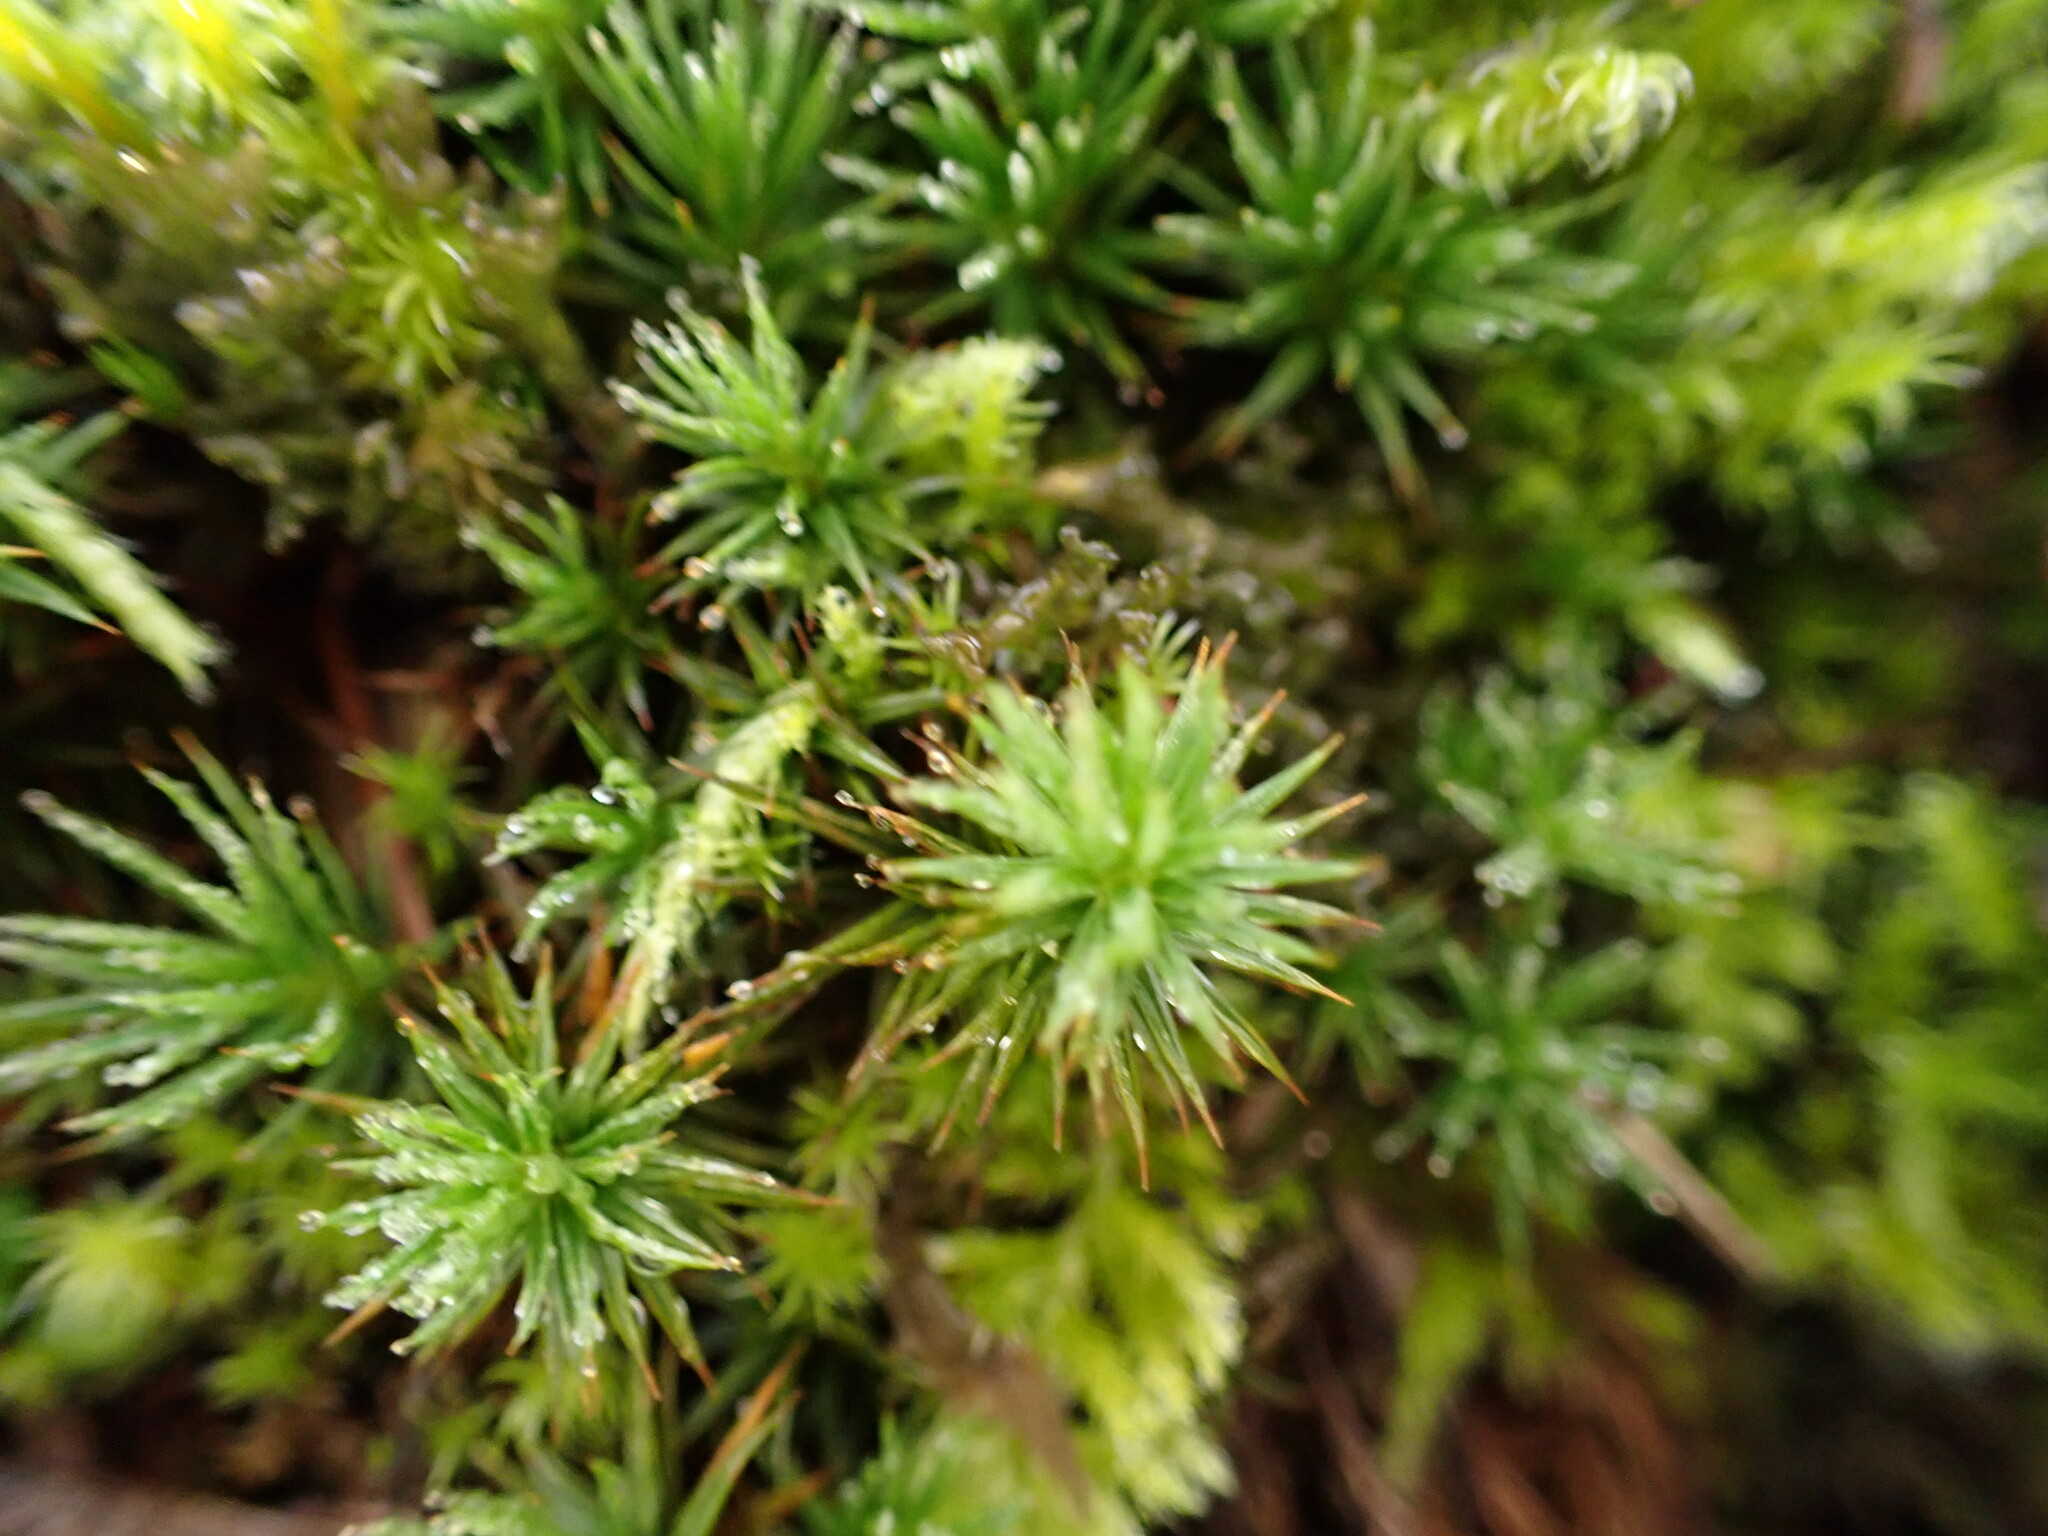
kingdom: Plantae
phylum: Bryophyta
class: Polytrichopsida
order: Polytrichales
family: Polytrichaceae
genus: Polytrichum
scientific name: Polytrichum juniperinum
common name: Juniper haircap moss
